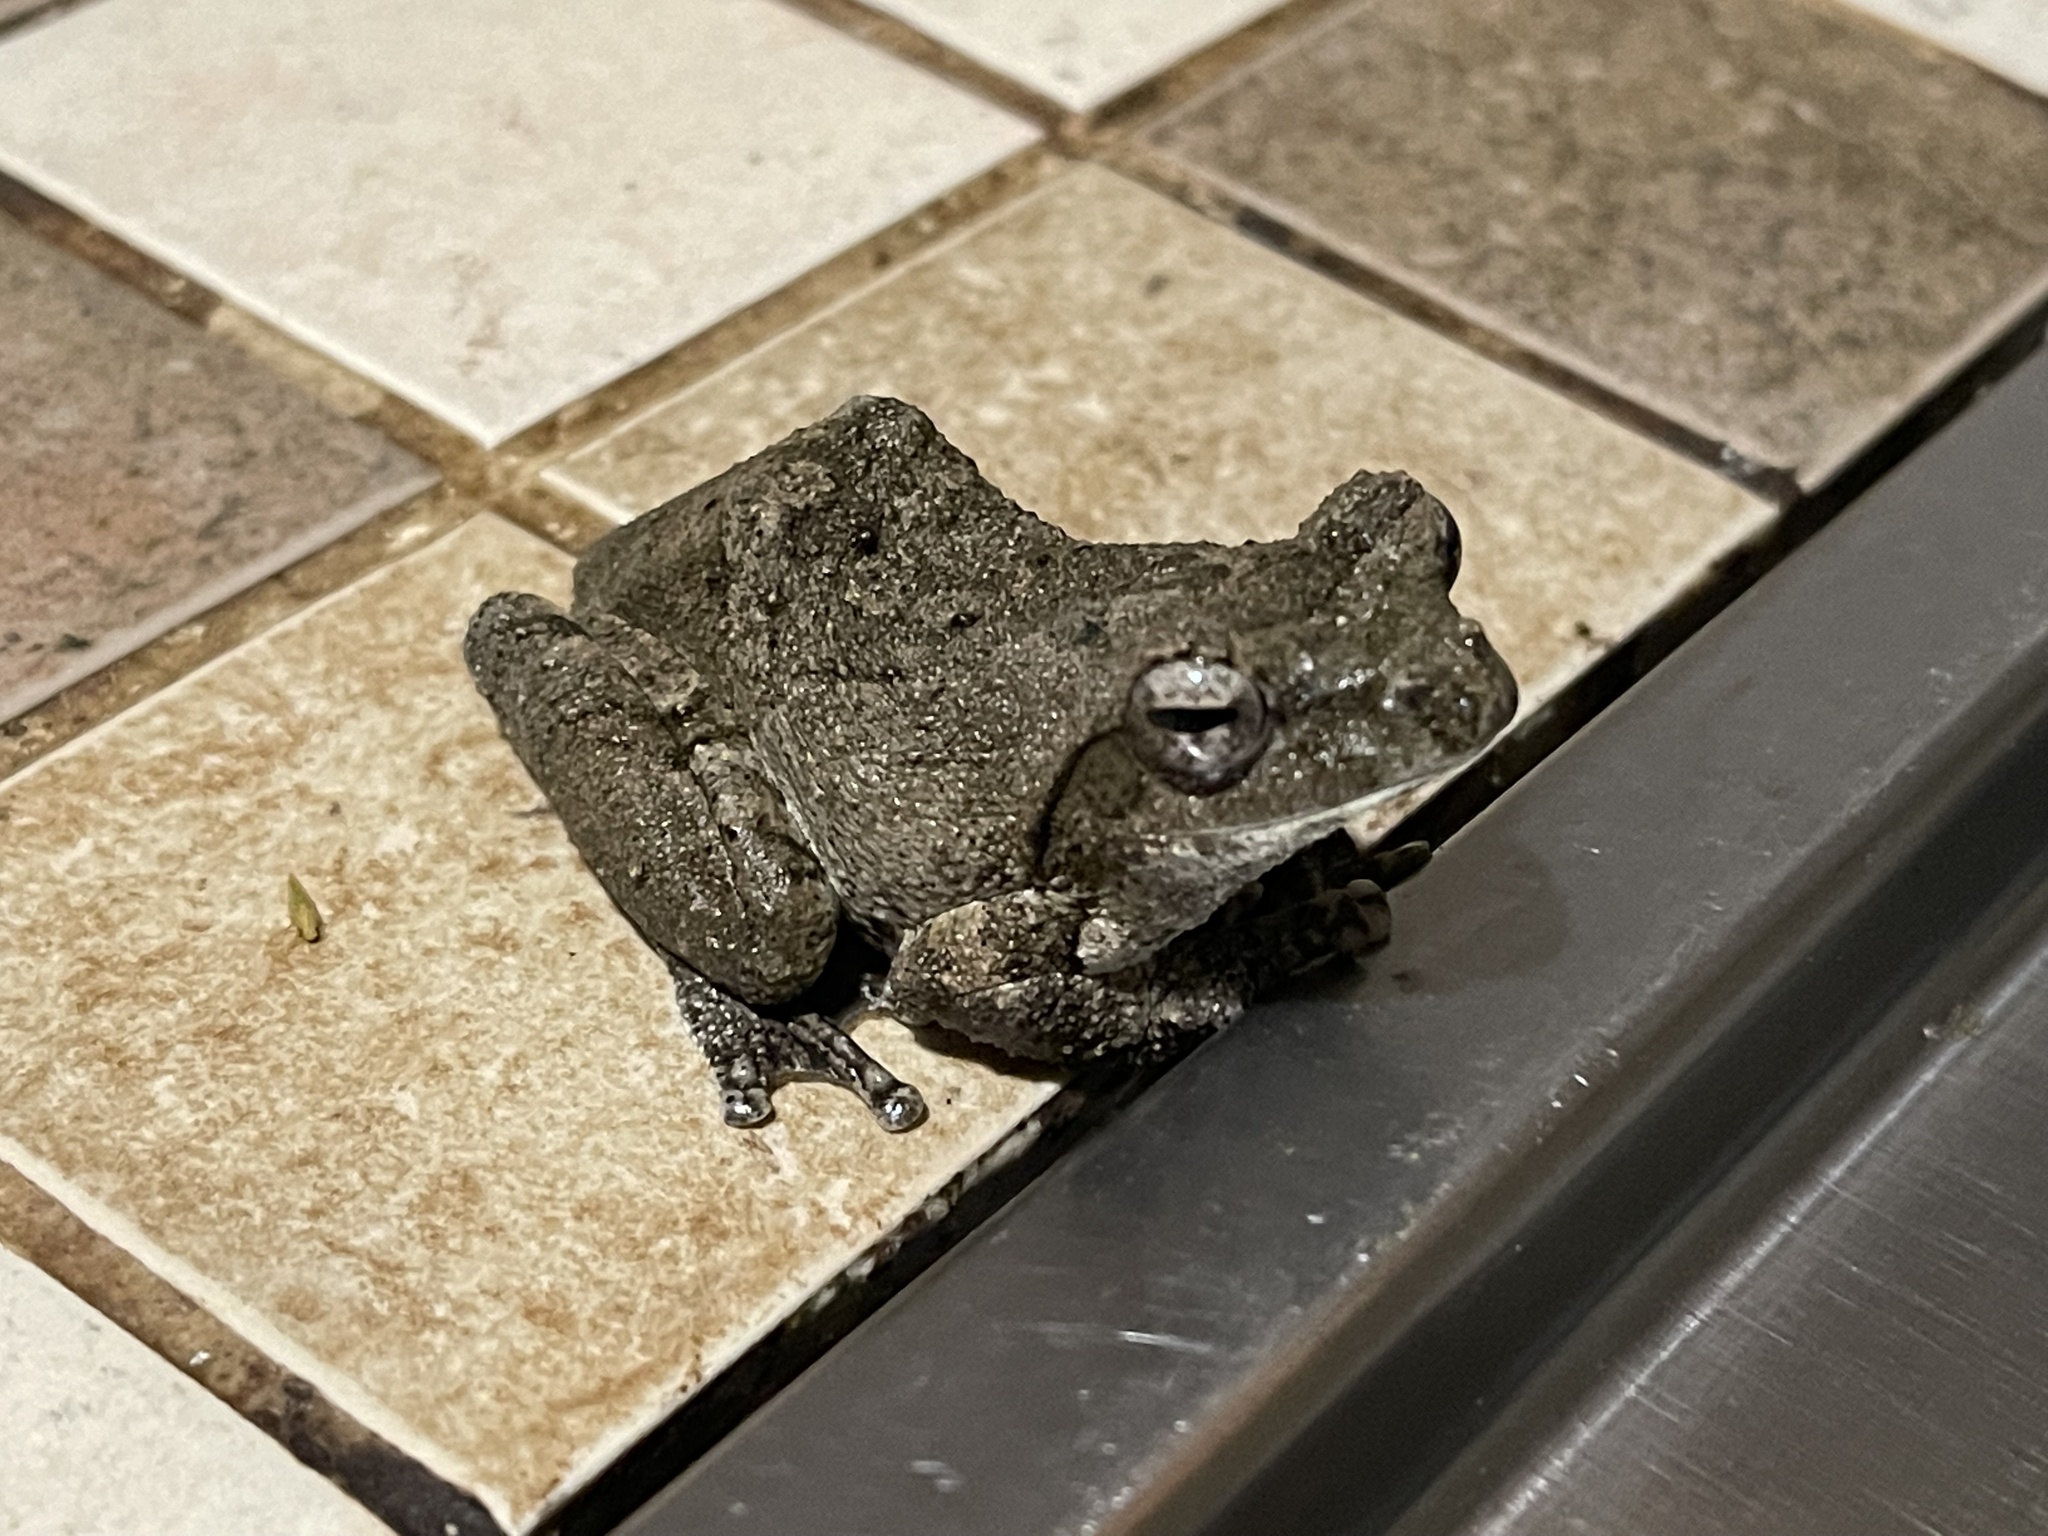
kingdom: Animalia
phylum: Chordata
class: Amphibia
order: Anura
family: Rhacophoridae
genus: Chiromantis
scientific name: Chiromantis xerampelina
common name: African gray treefrog
